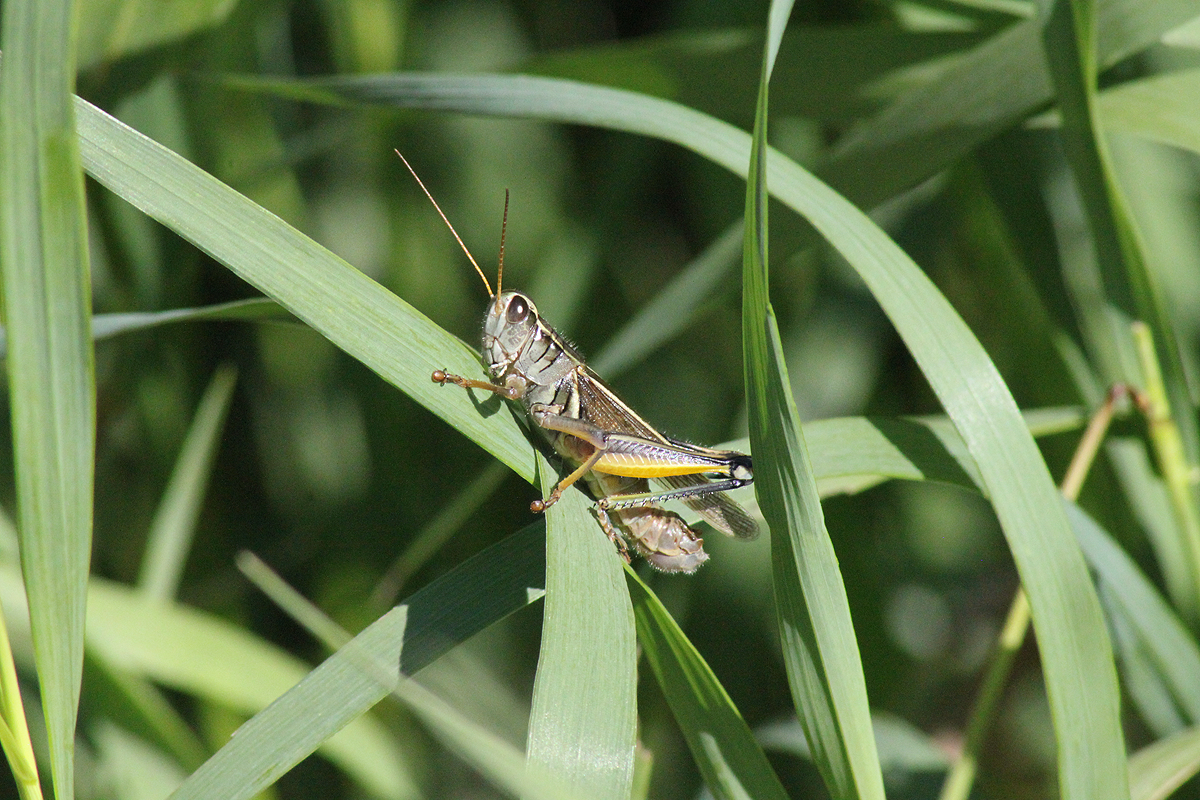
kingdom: Animalia
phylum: Arthropoda
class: Insecta
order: Orthoptera
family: Acrididae
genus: Melanoplus
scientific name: Melanoplus bivittatus
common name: Two-striped grasshopper
